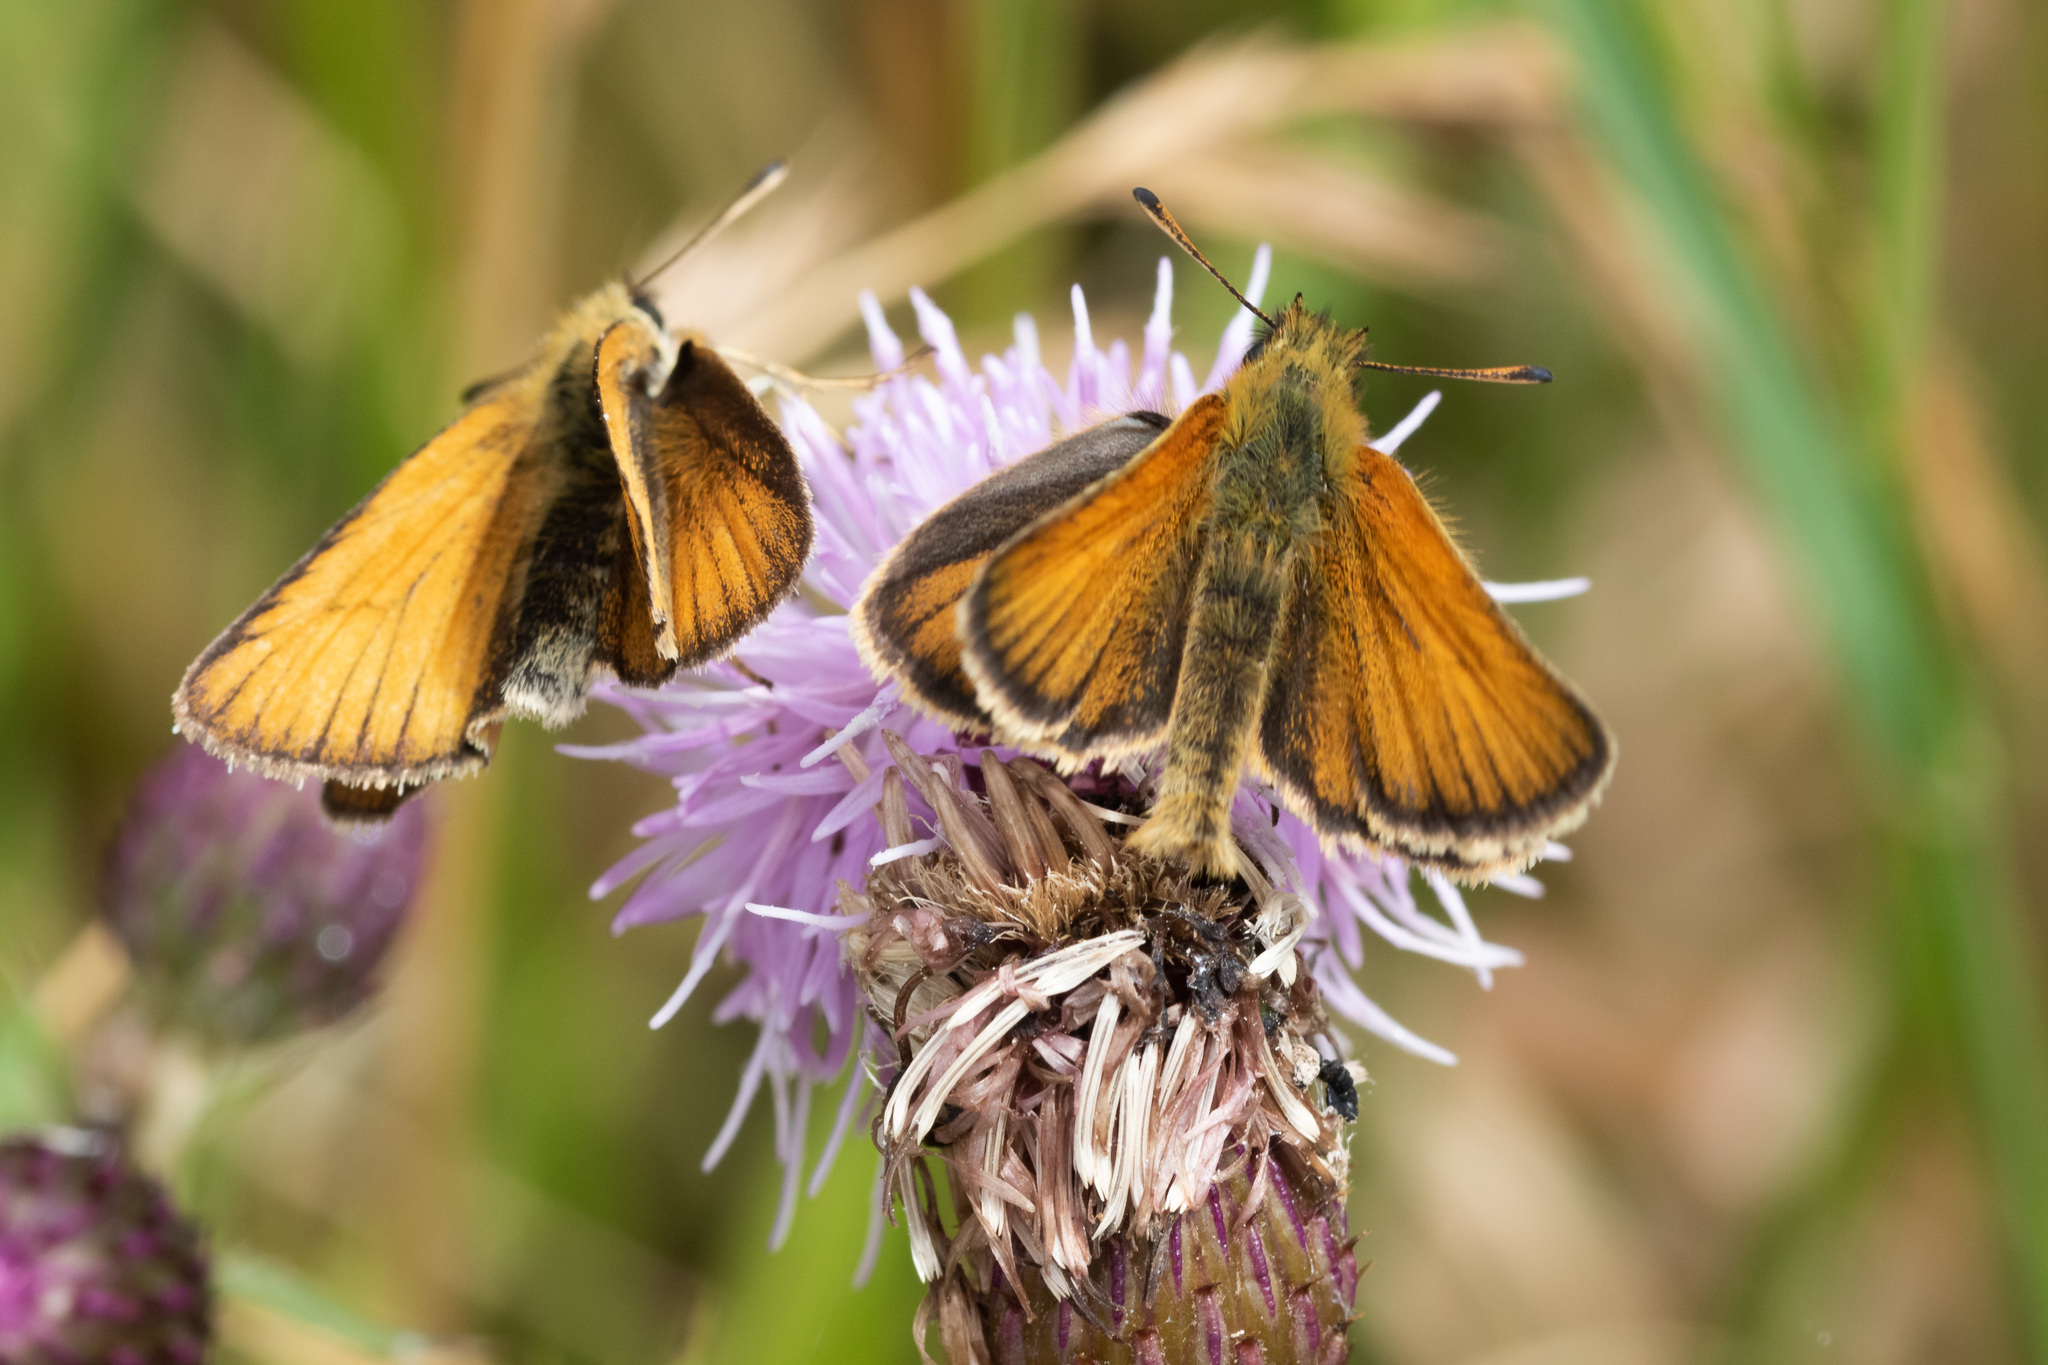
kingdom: Animalia
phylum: Arthropoda
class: Insecta
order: Lepidoptera
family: Hesperiidae
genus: Thymelicus
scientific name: Thymelicus lineola
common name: Essex skipper
